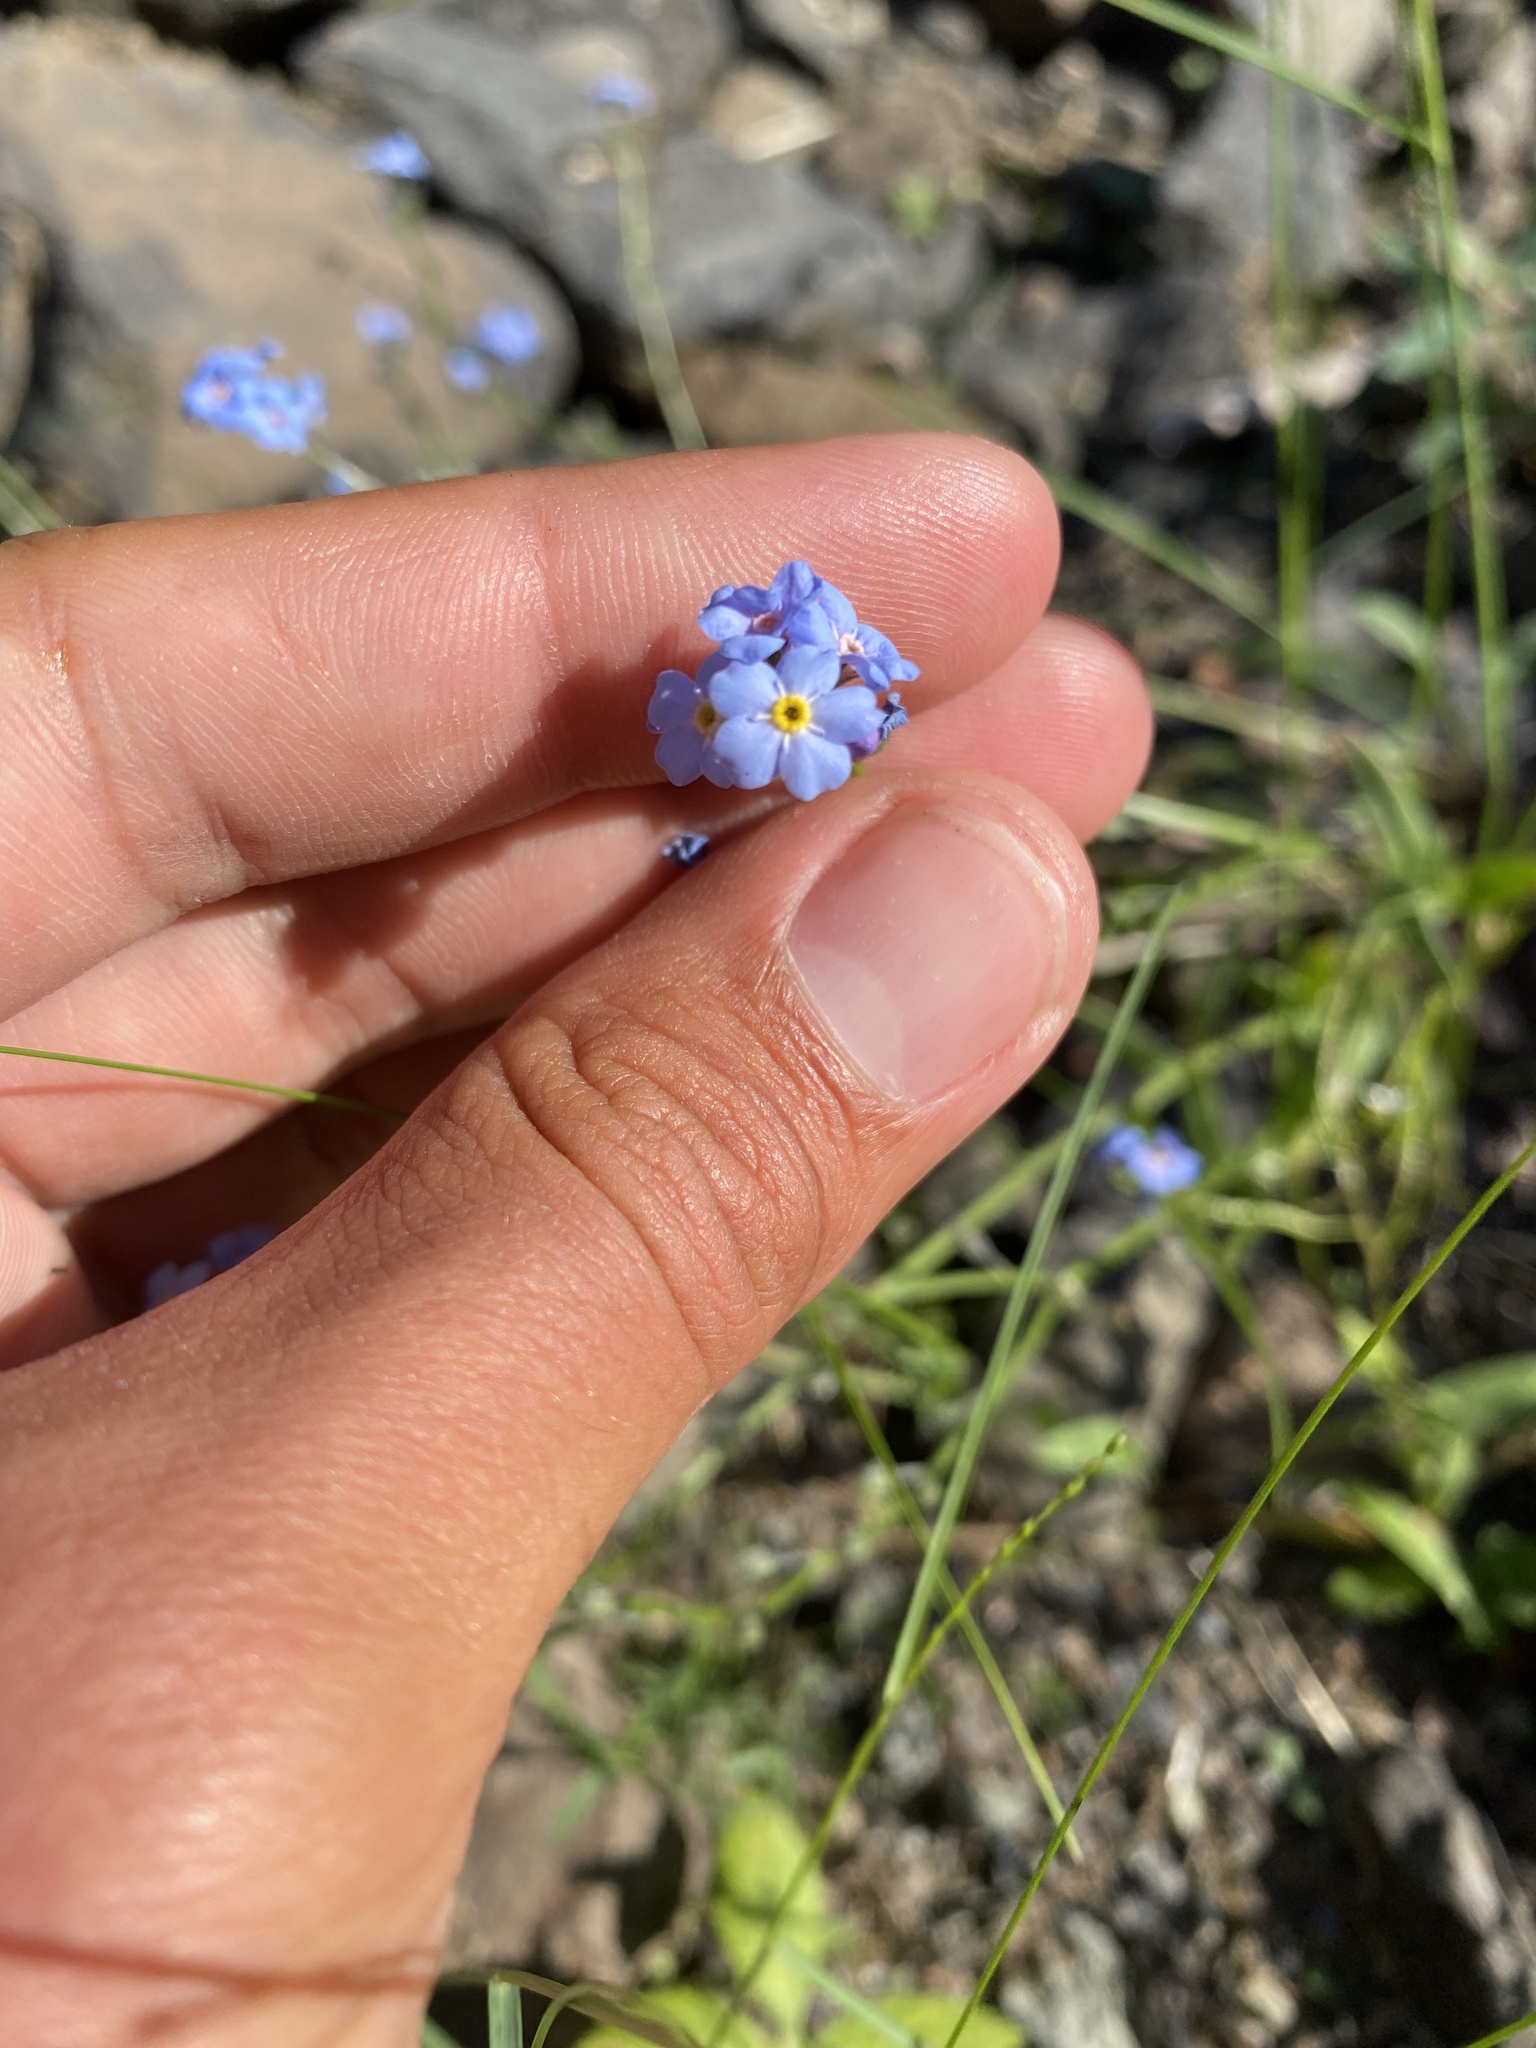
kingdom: Plantae
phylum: Tracheophyta
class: Magnoliopsida
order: Boraginales
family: Boraginaceae
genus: Myosotis
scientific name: Myosotis asiatica
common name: Asian forget-me-not
